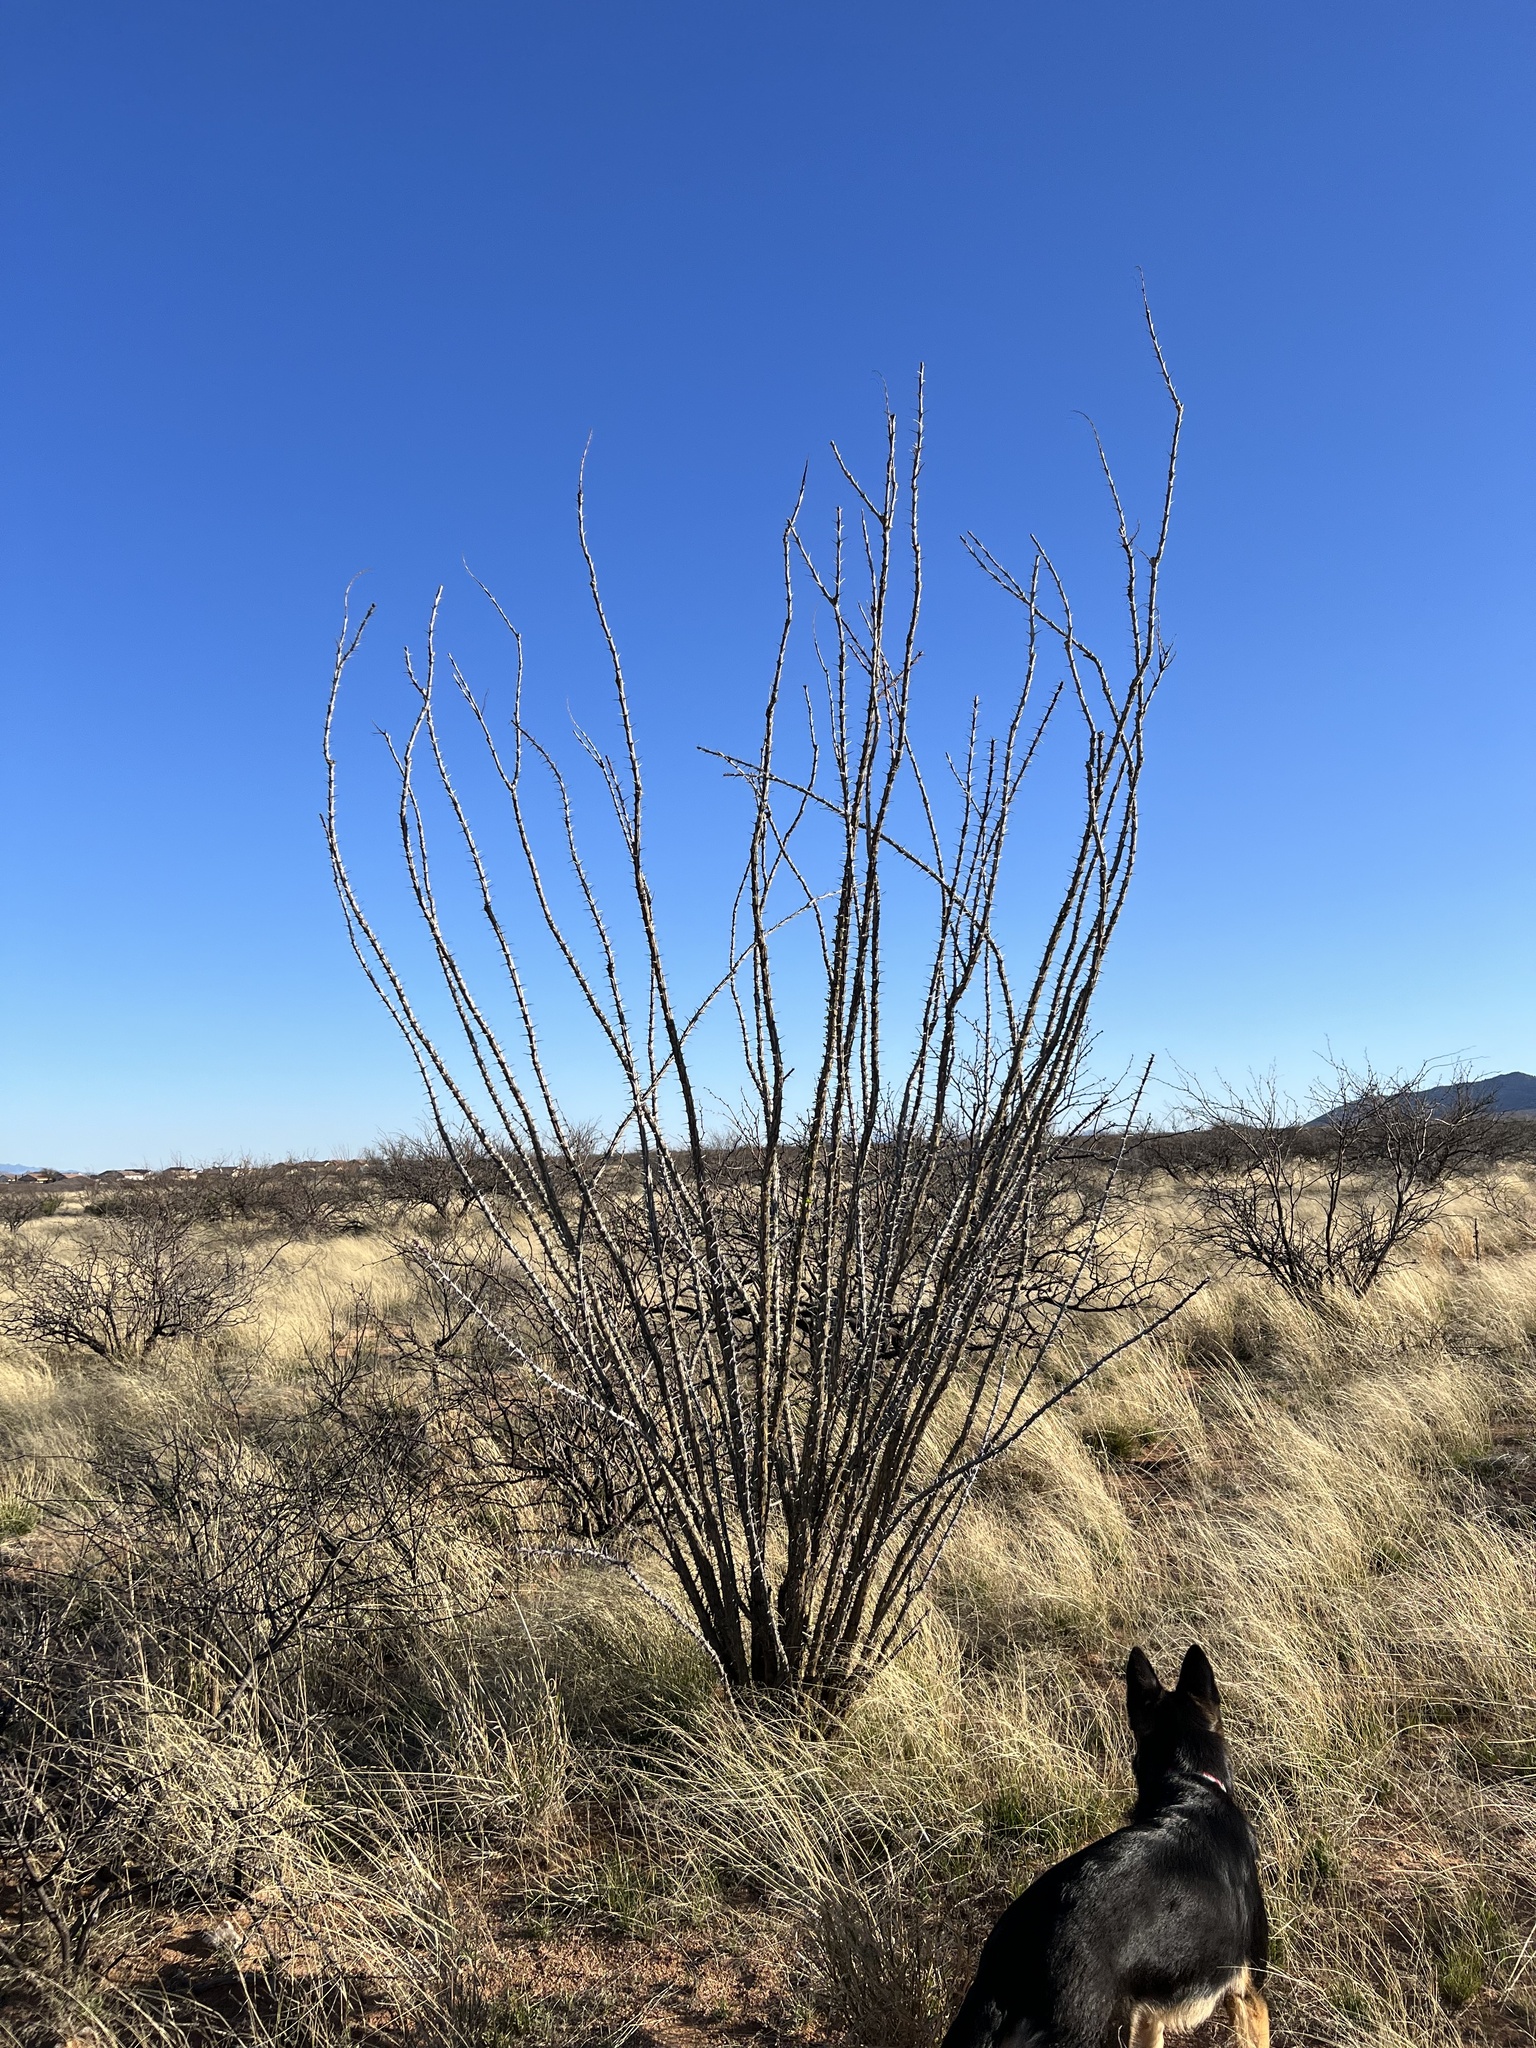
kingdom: Plantae
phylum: Tracheophyta
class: Magnoliopsida
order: Ericales
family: Fouquieriaceae
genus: Fouquieria
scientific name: Fouquieria splendens
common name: Vine-cactus
